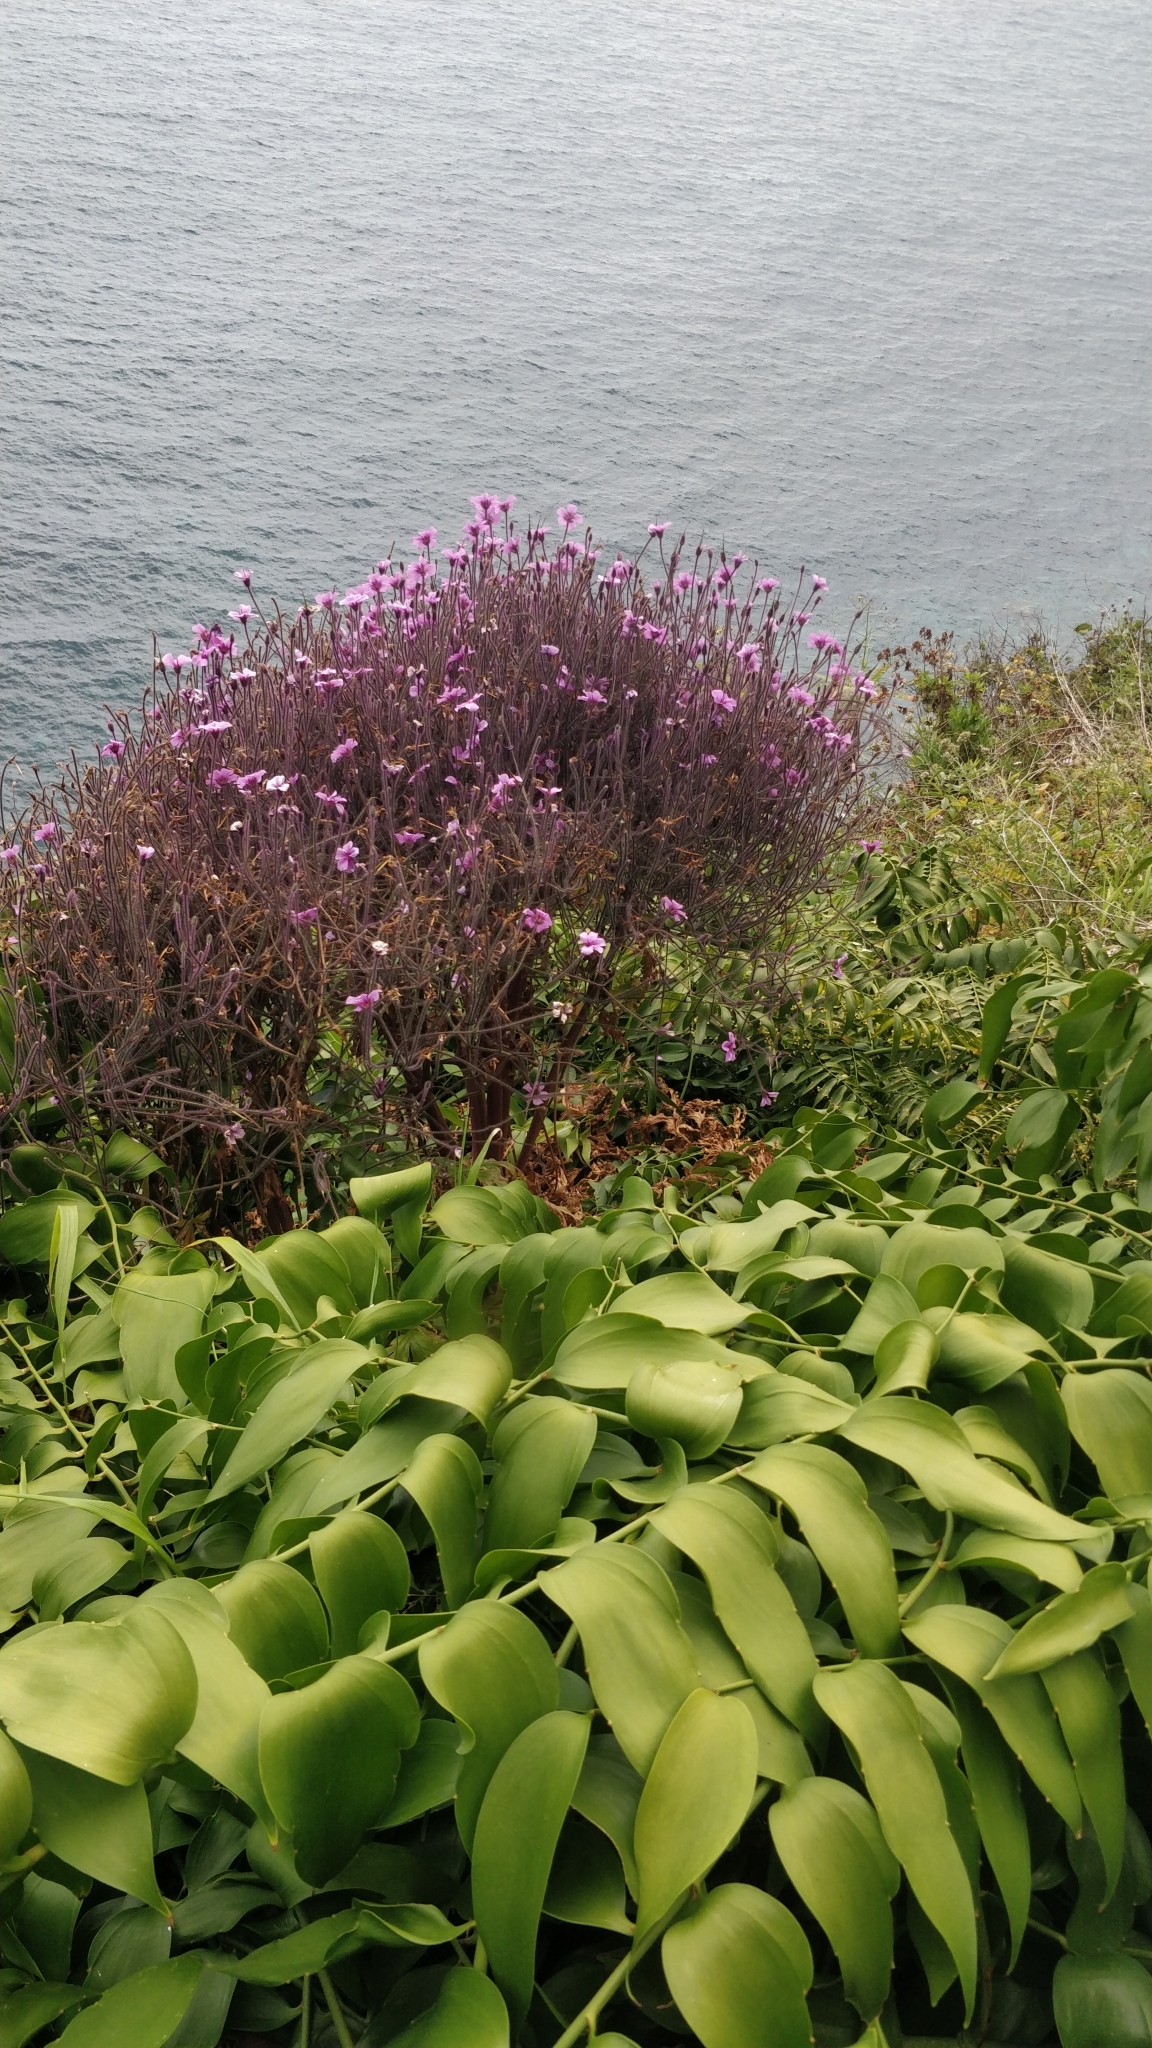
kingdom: Plantae
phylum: Tracheophyta
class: Magnoliopsida
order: Geraniales
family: Geraniaceae
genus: Geranium
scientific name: Geranium maderense
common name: Giant herb-robert
